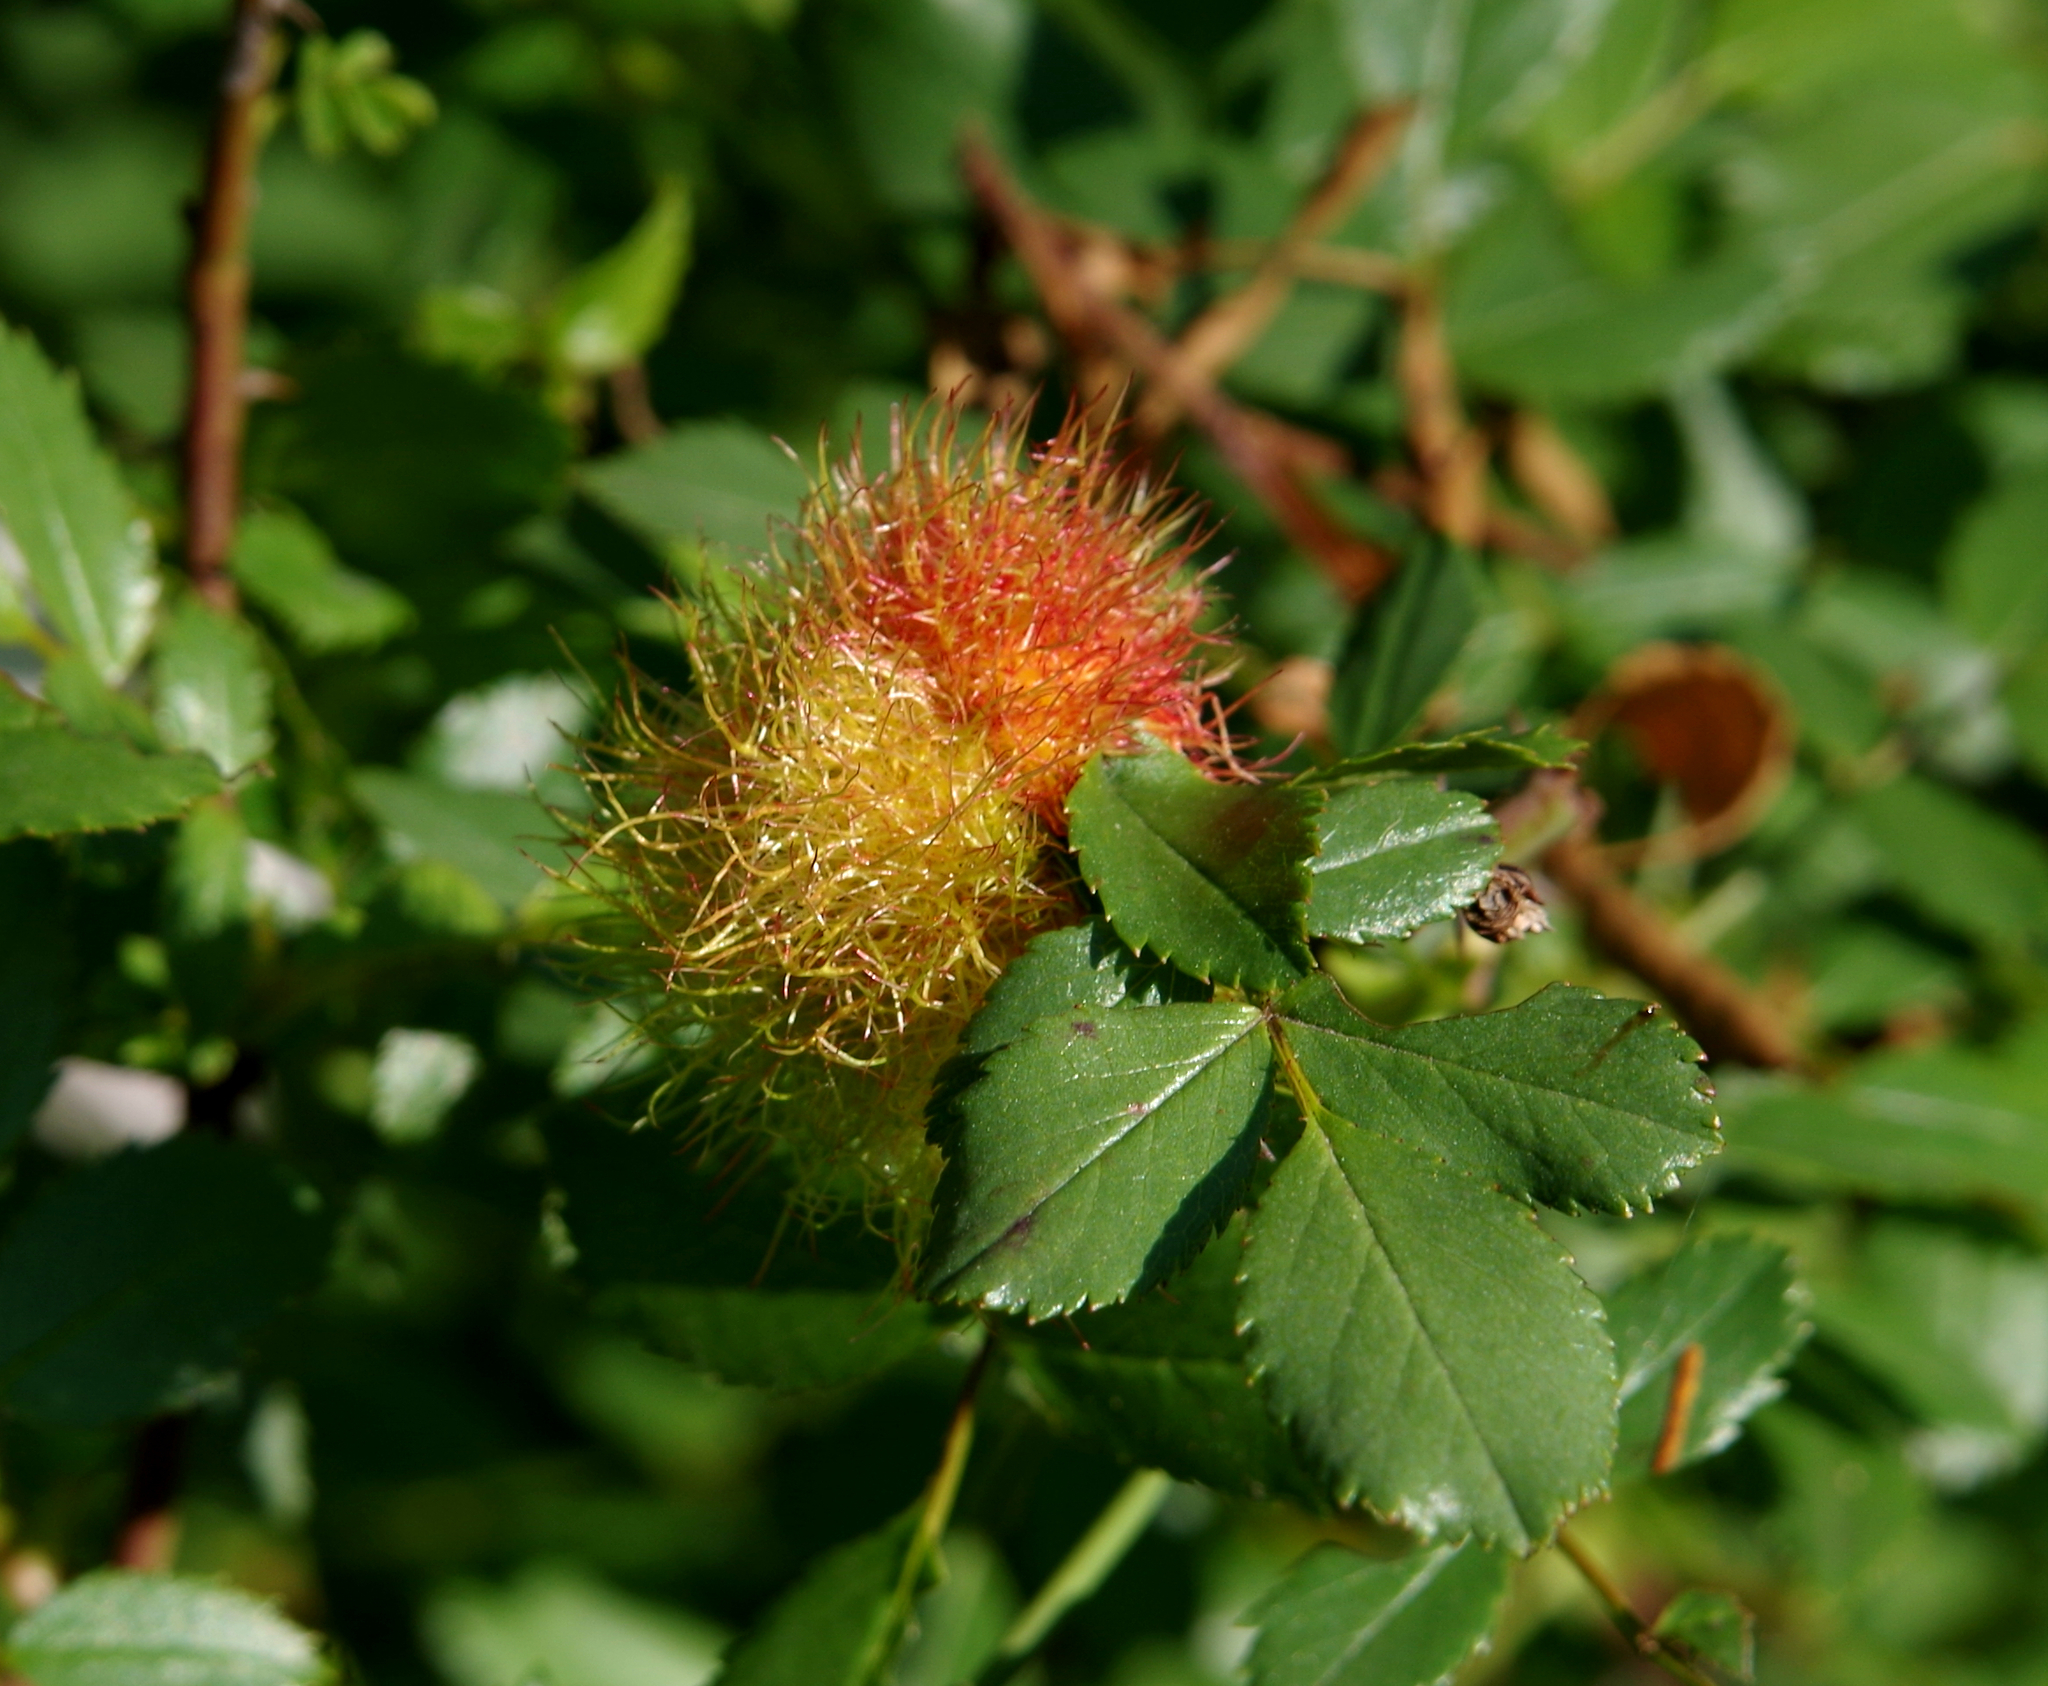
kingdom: Animalia
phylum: Arthropoda
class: Insecta
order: Hymenoptera
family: Cynipidae
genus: Diplolepis
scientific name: Diplolepis rosae
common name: Bedeguar gall
